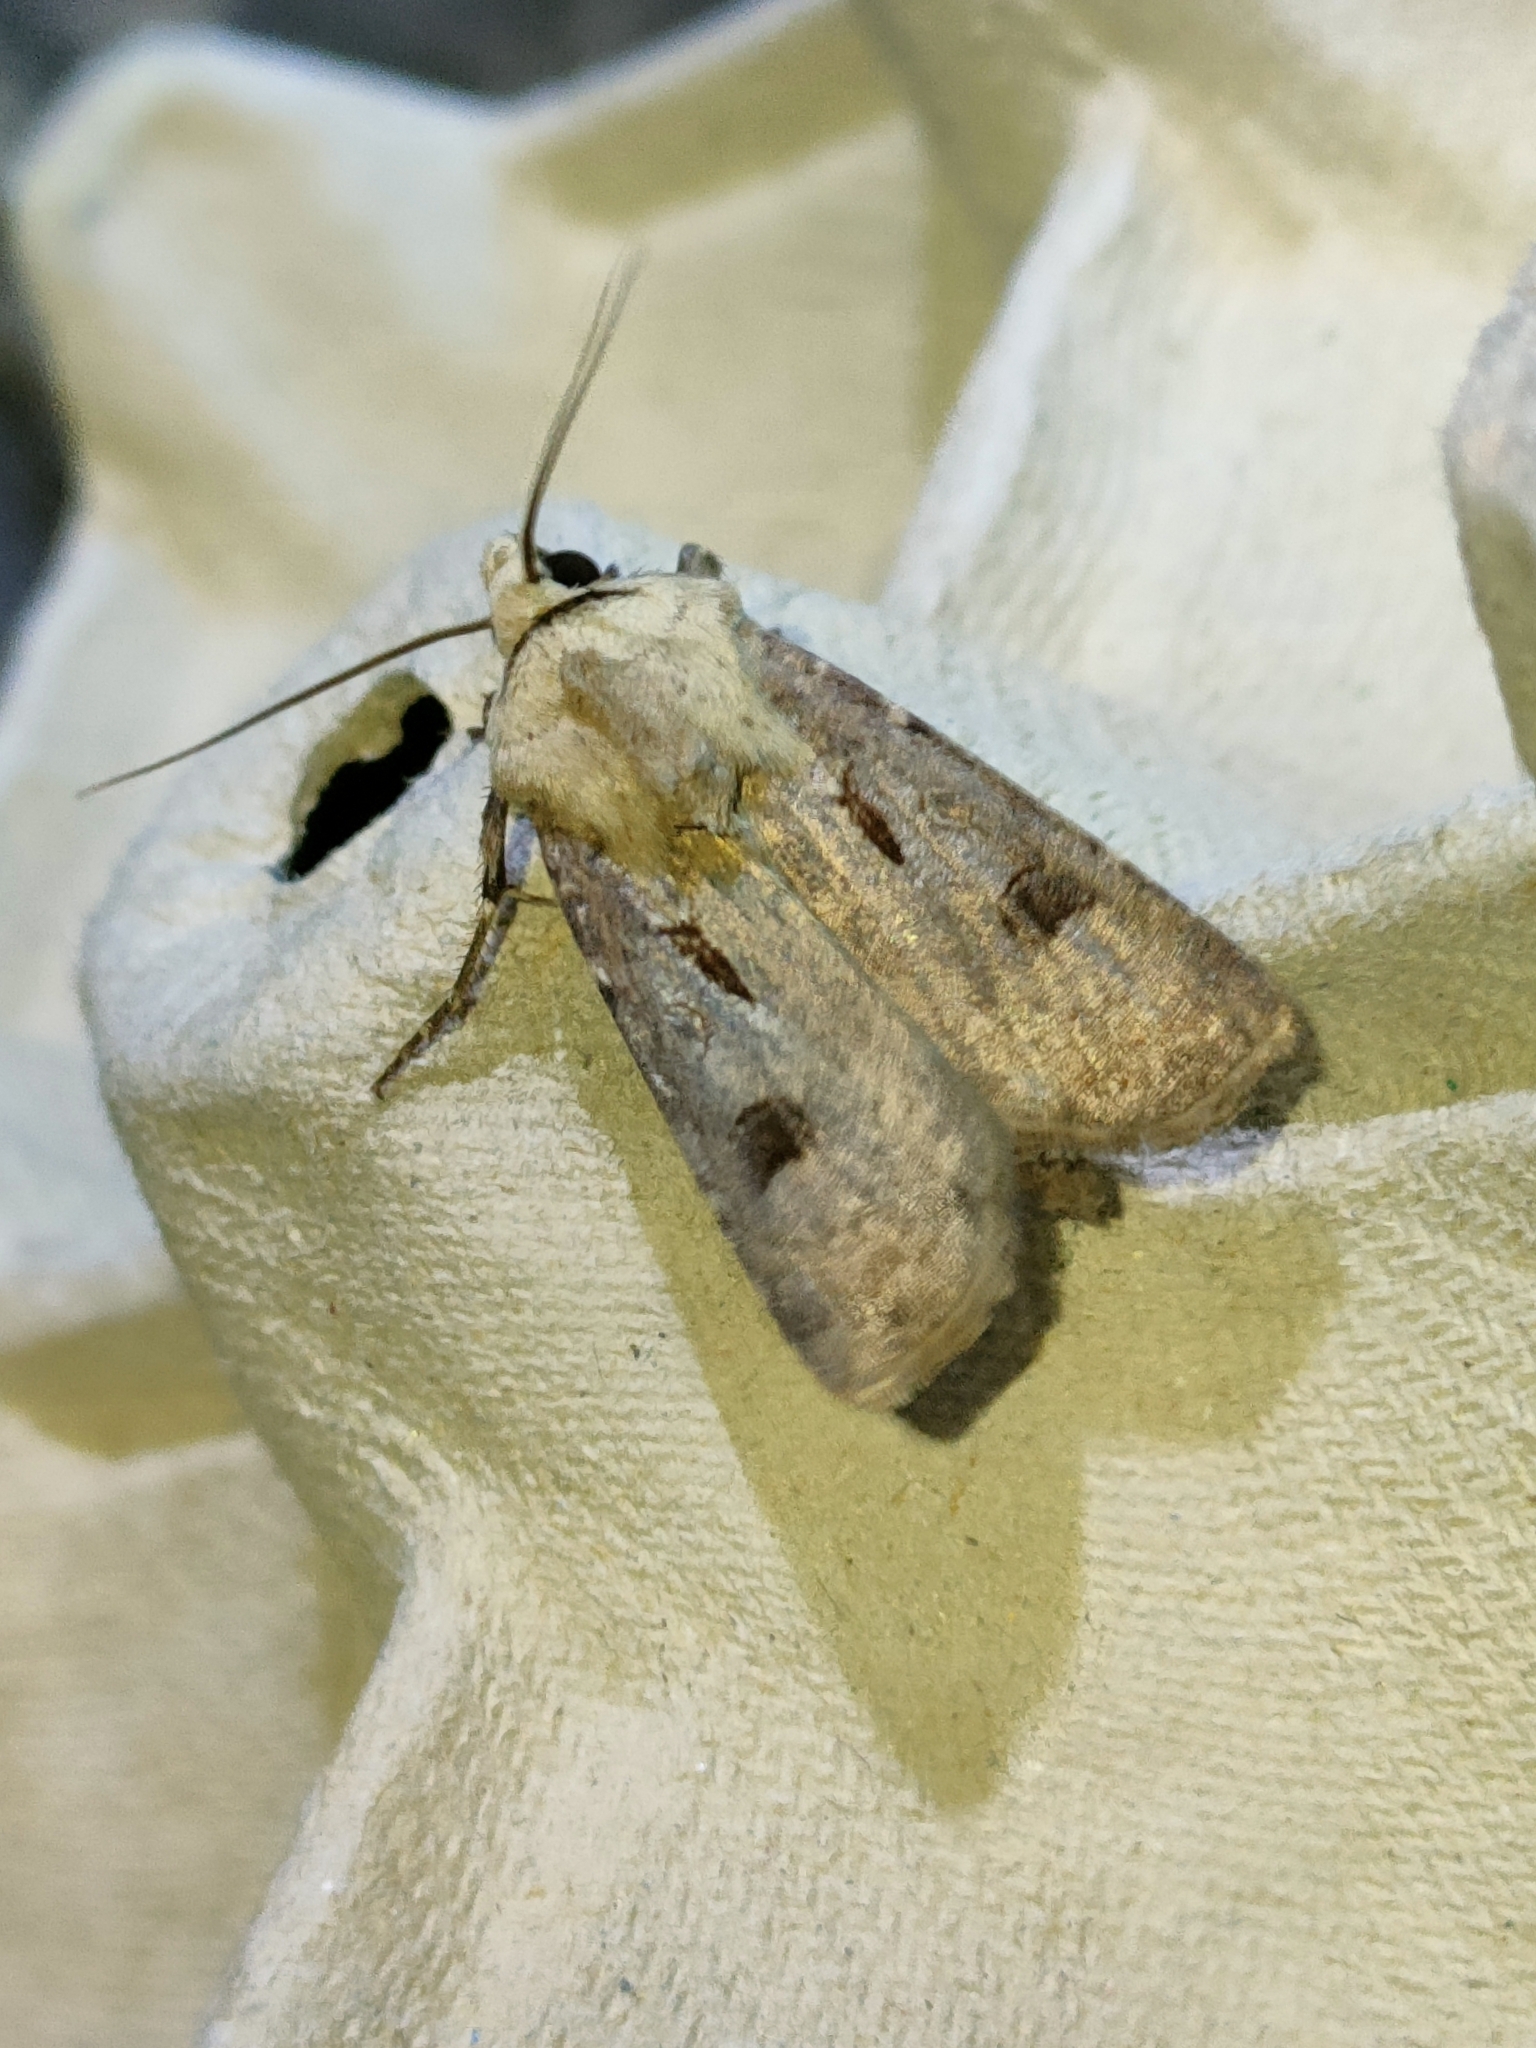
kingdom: Animalia
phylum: Arthropoda
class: Insecta
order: Lepidoptera
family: Noctuidae
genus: Agrotis
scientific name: Agrotis exclamationis
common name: Heart and dart
